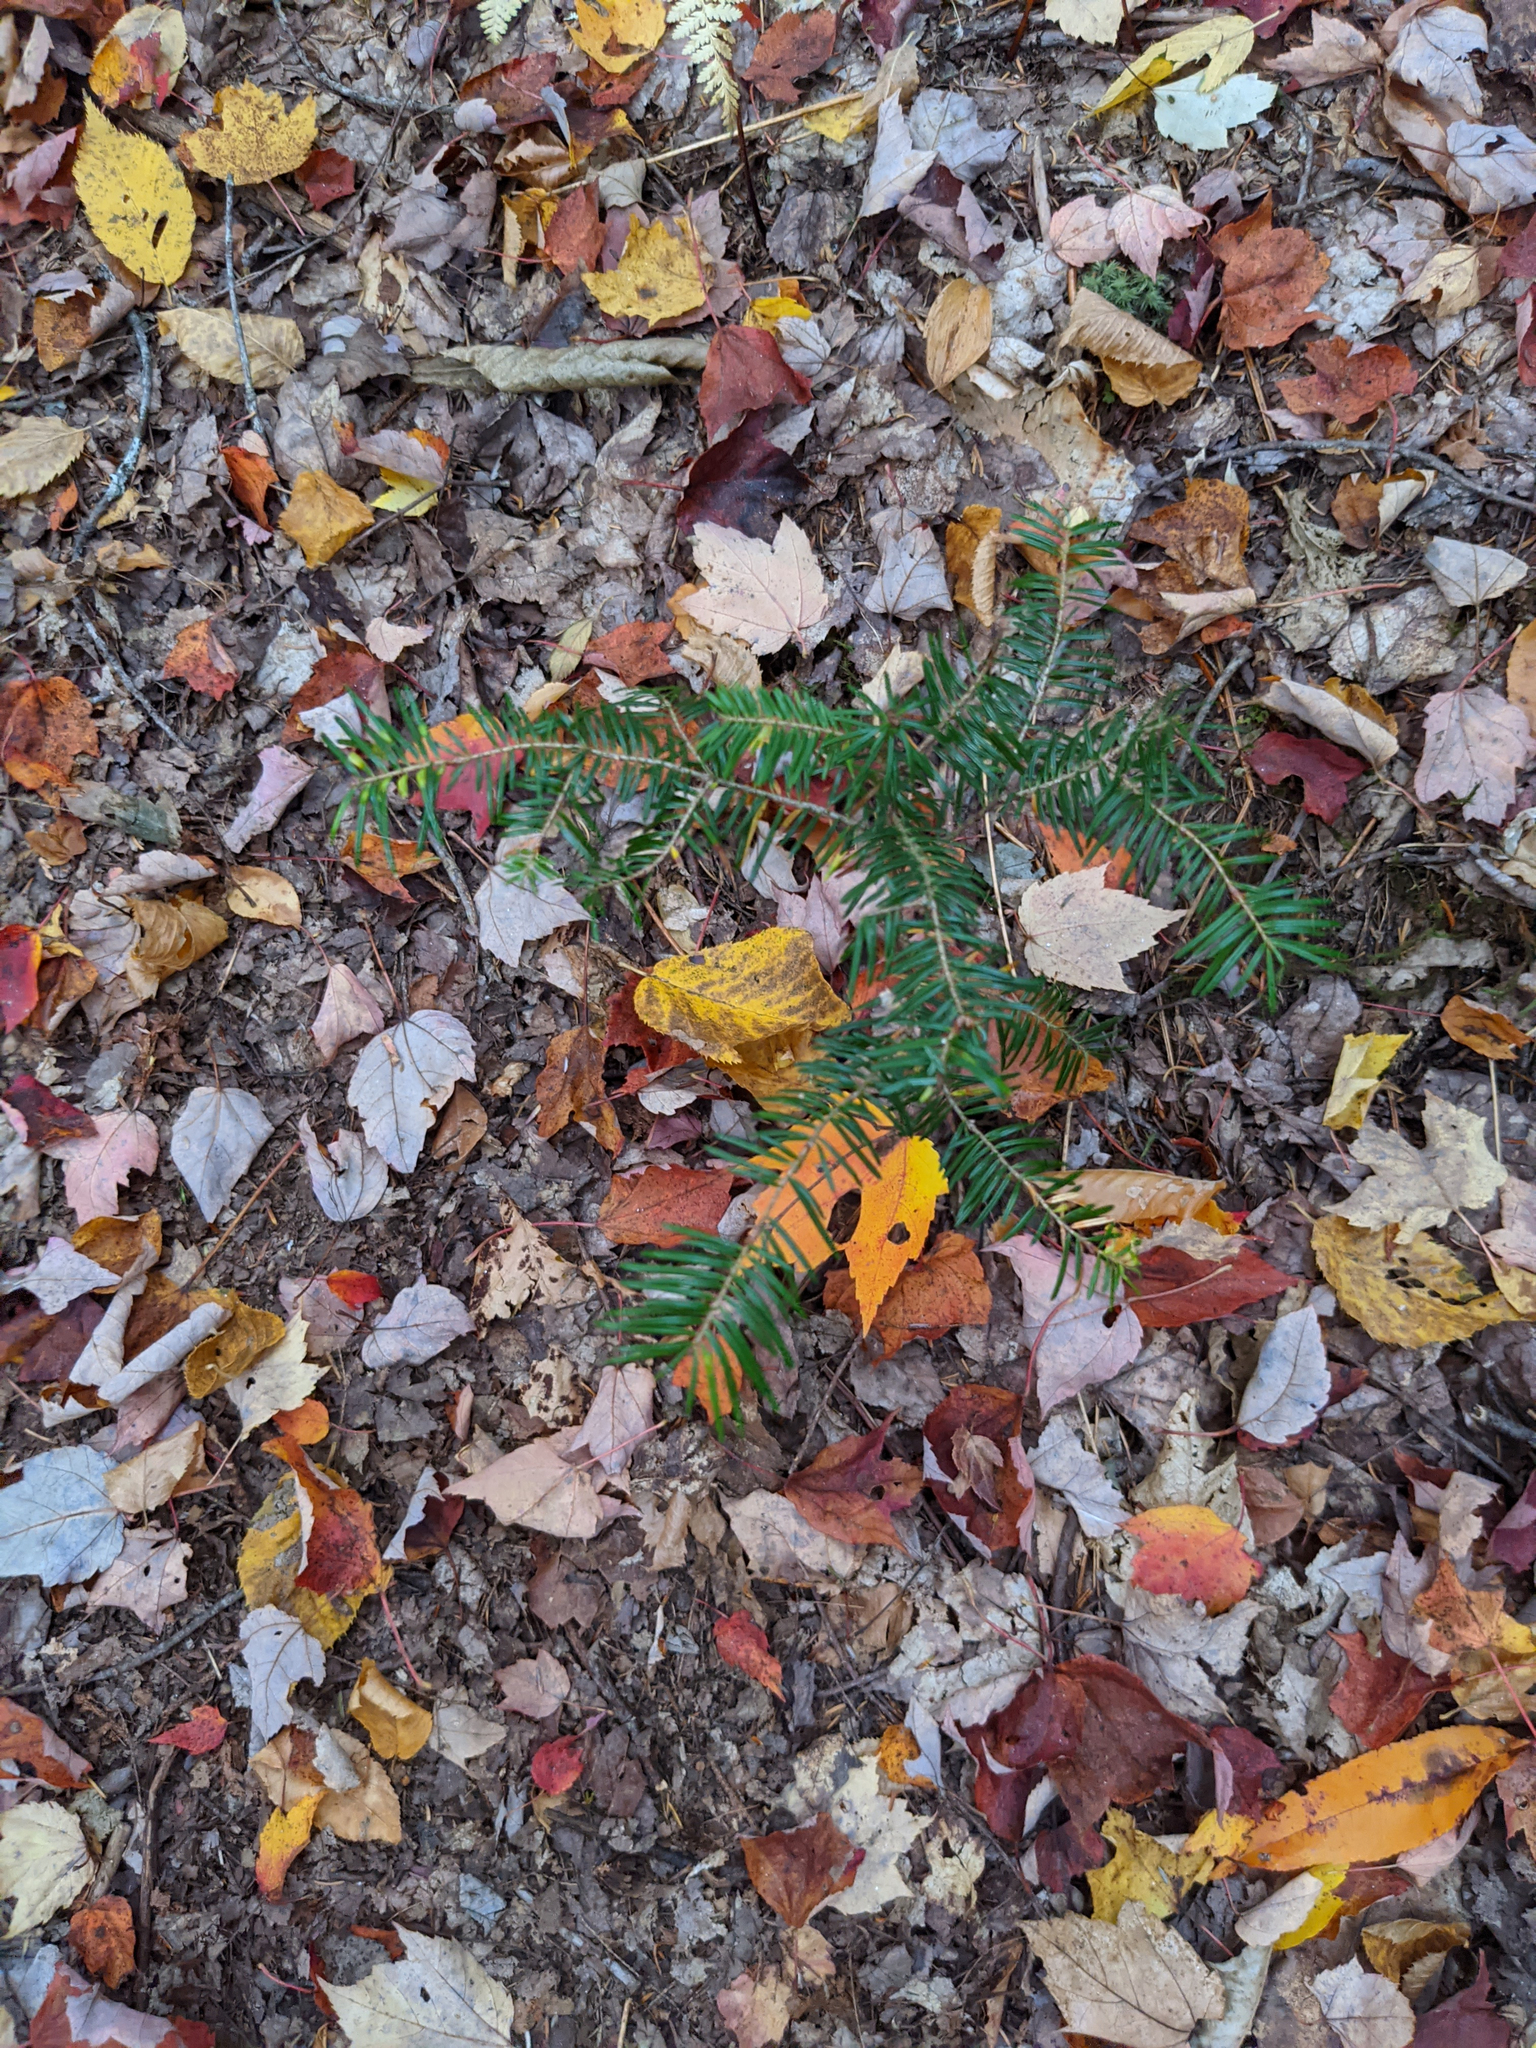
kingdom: Plantae
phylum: Tracheophyta
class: Pinopsida
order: Pinales
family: Pinaceae
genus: Abies
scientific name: Abies balsamea
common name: Balsam fir
